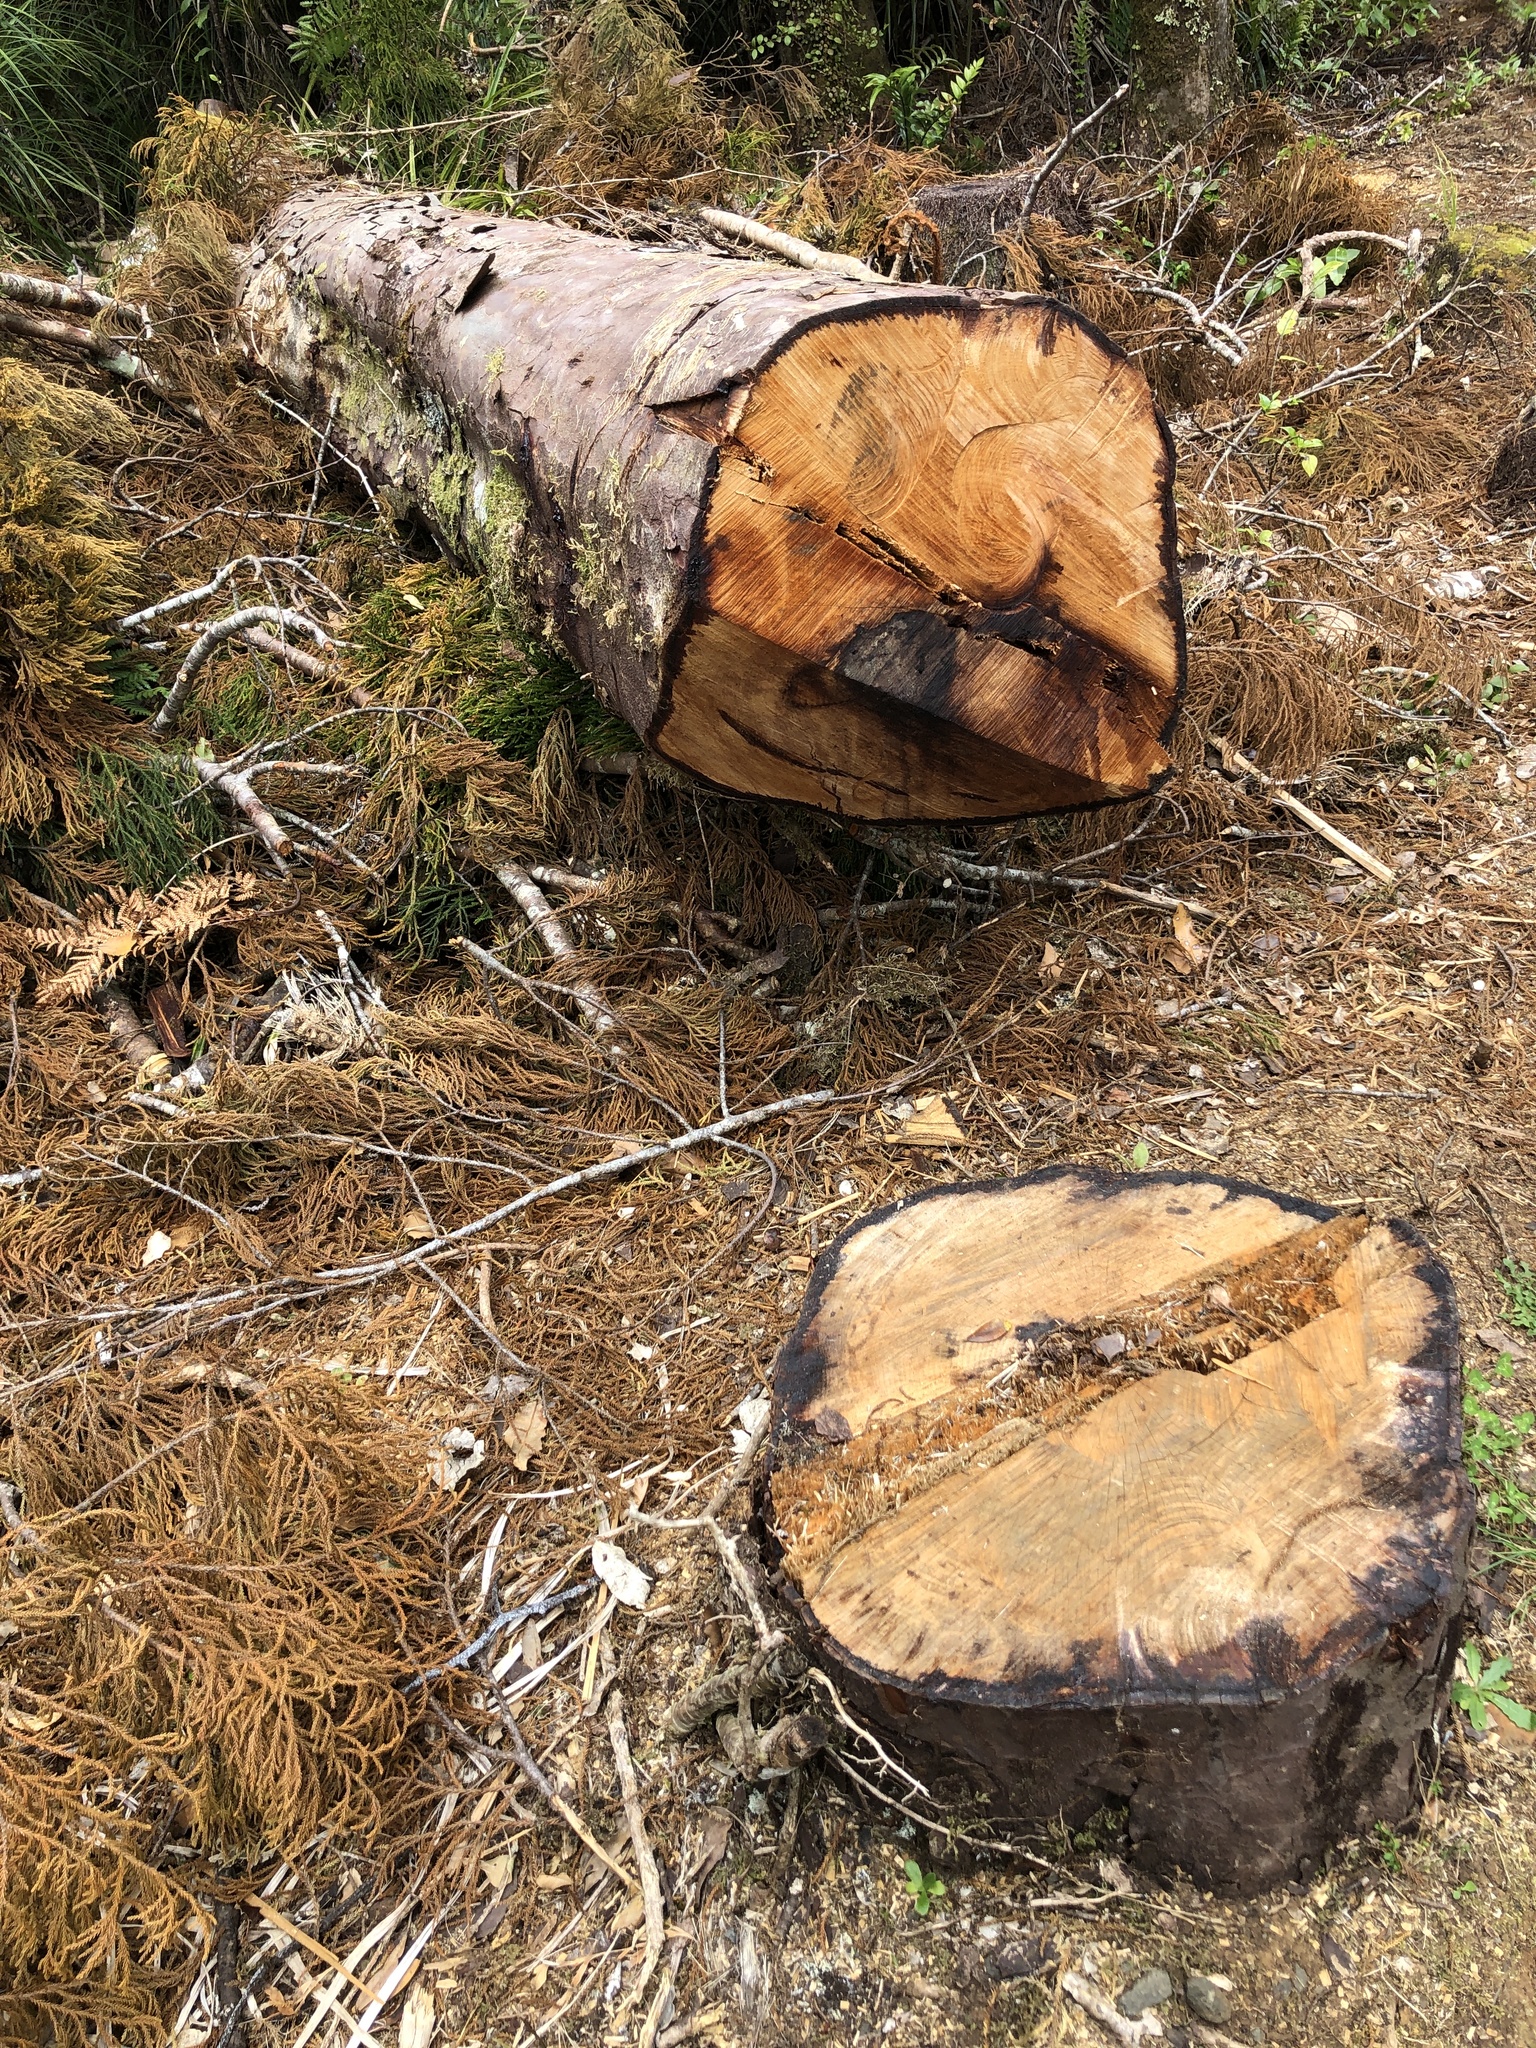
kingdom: Plantae
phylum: Tracheophyta
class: Pinopsida
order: Pinales
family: Podocarpaceae
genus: Dacrydium
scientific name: Dacrydium cupressinum
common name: Red pine
